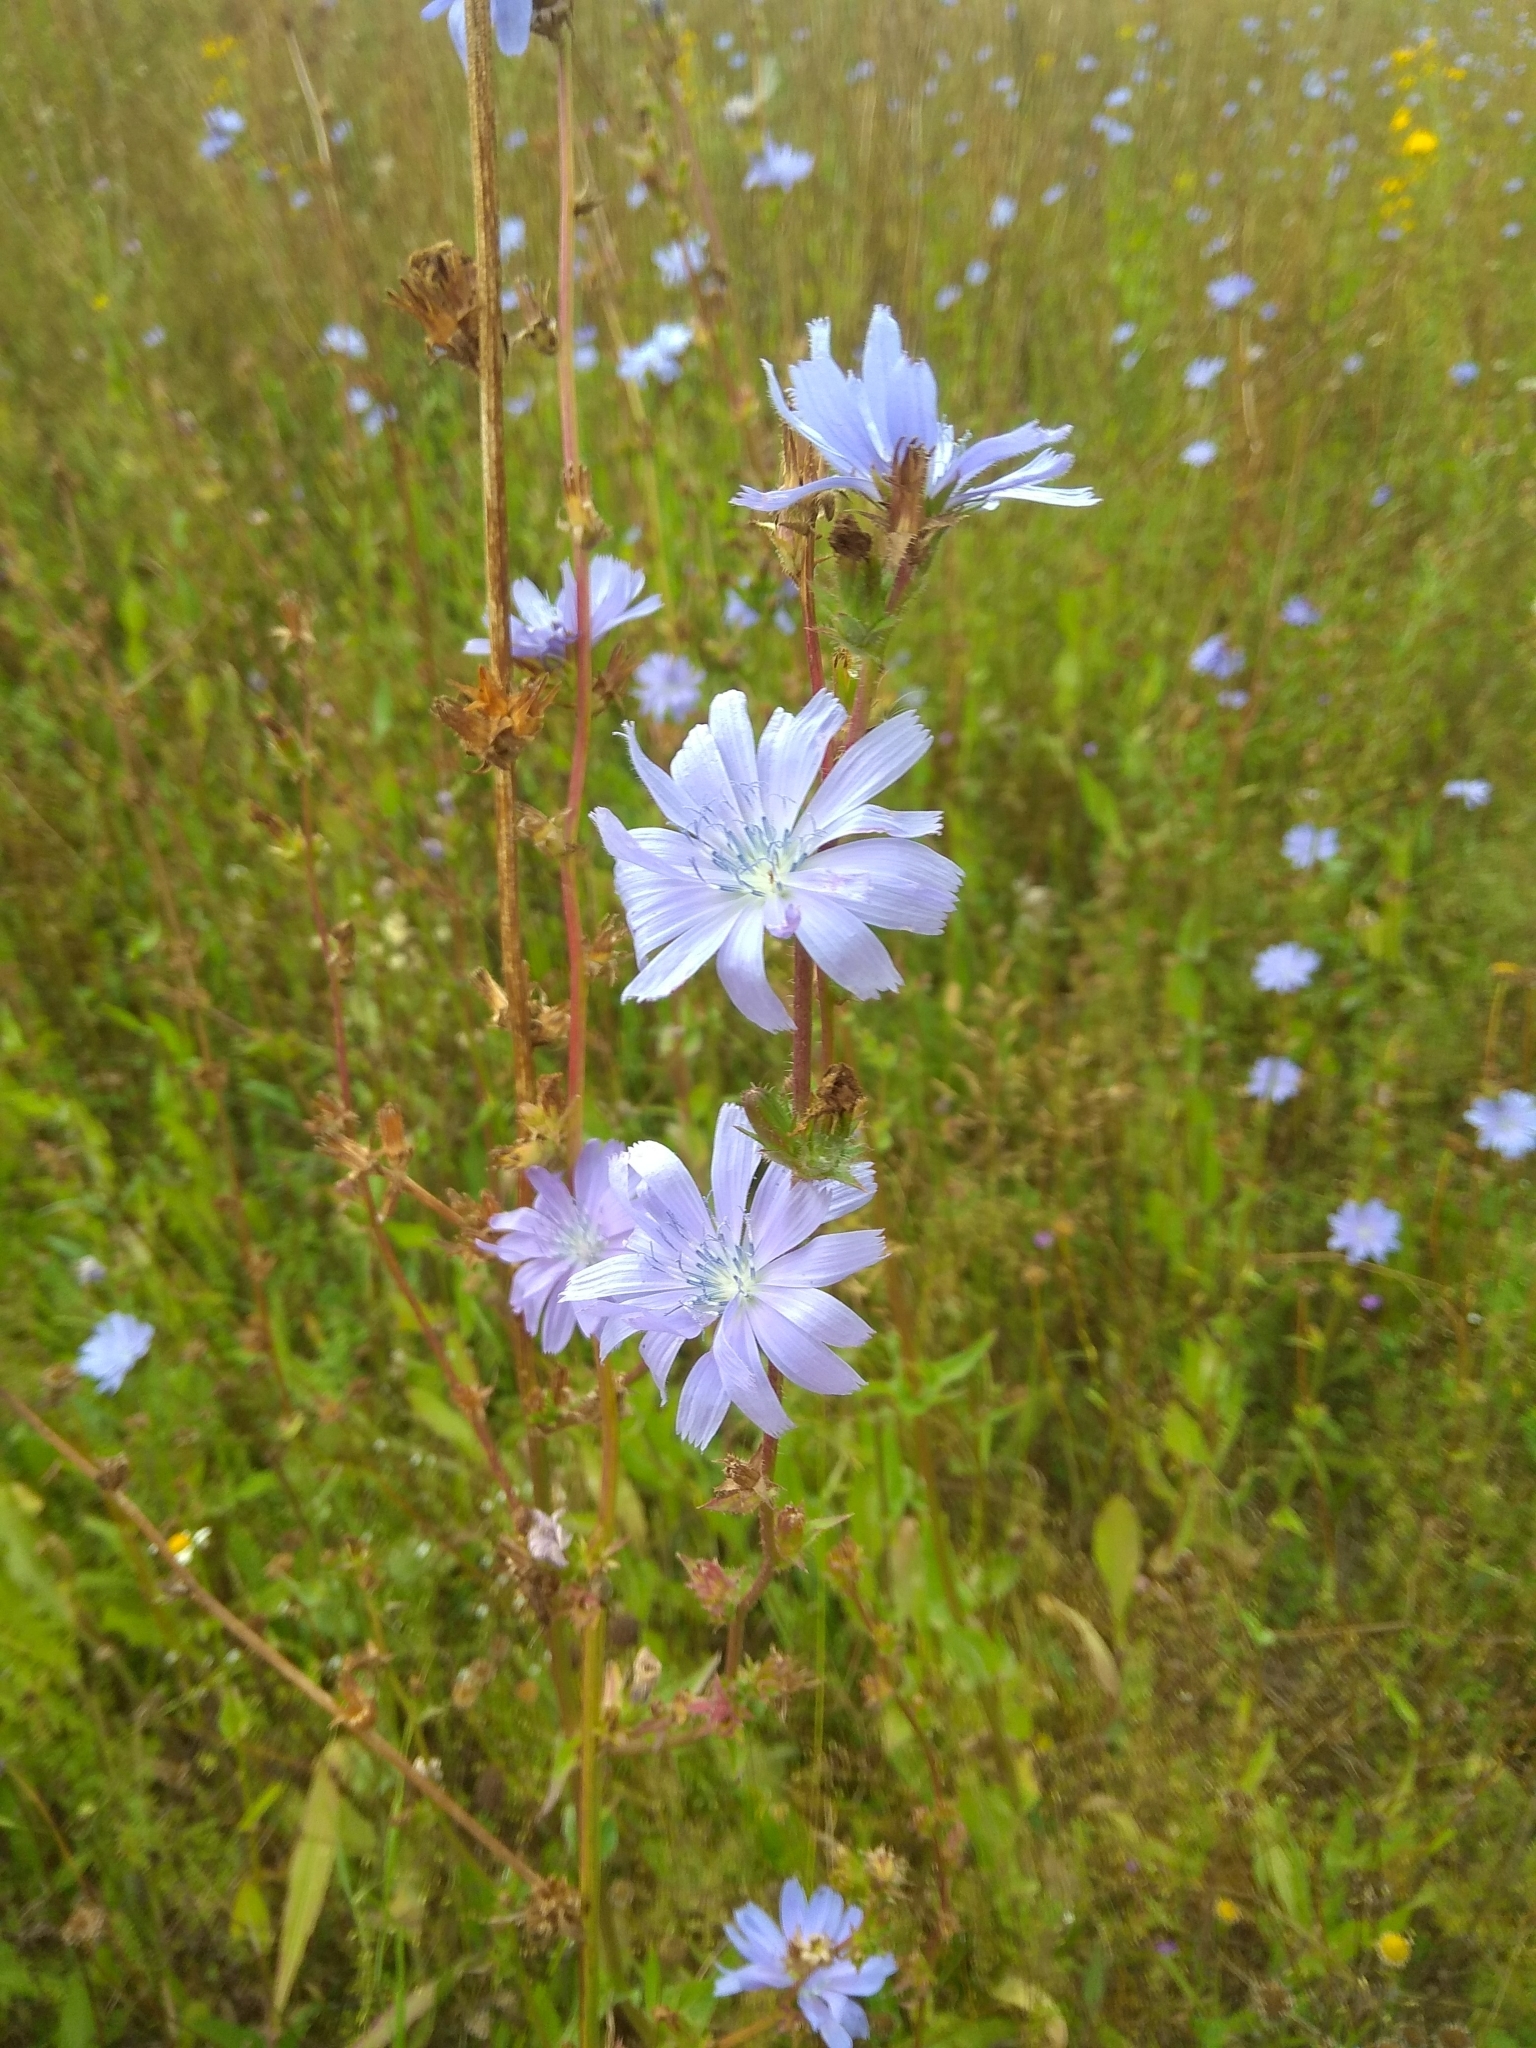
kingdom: Plantae
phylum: Tracheophyta
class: Magnoliopsida
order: Asterales
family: Asteraceae
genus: Cichorium
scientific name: Cichorium intybus
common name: Chicory
